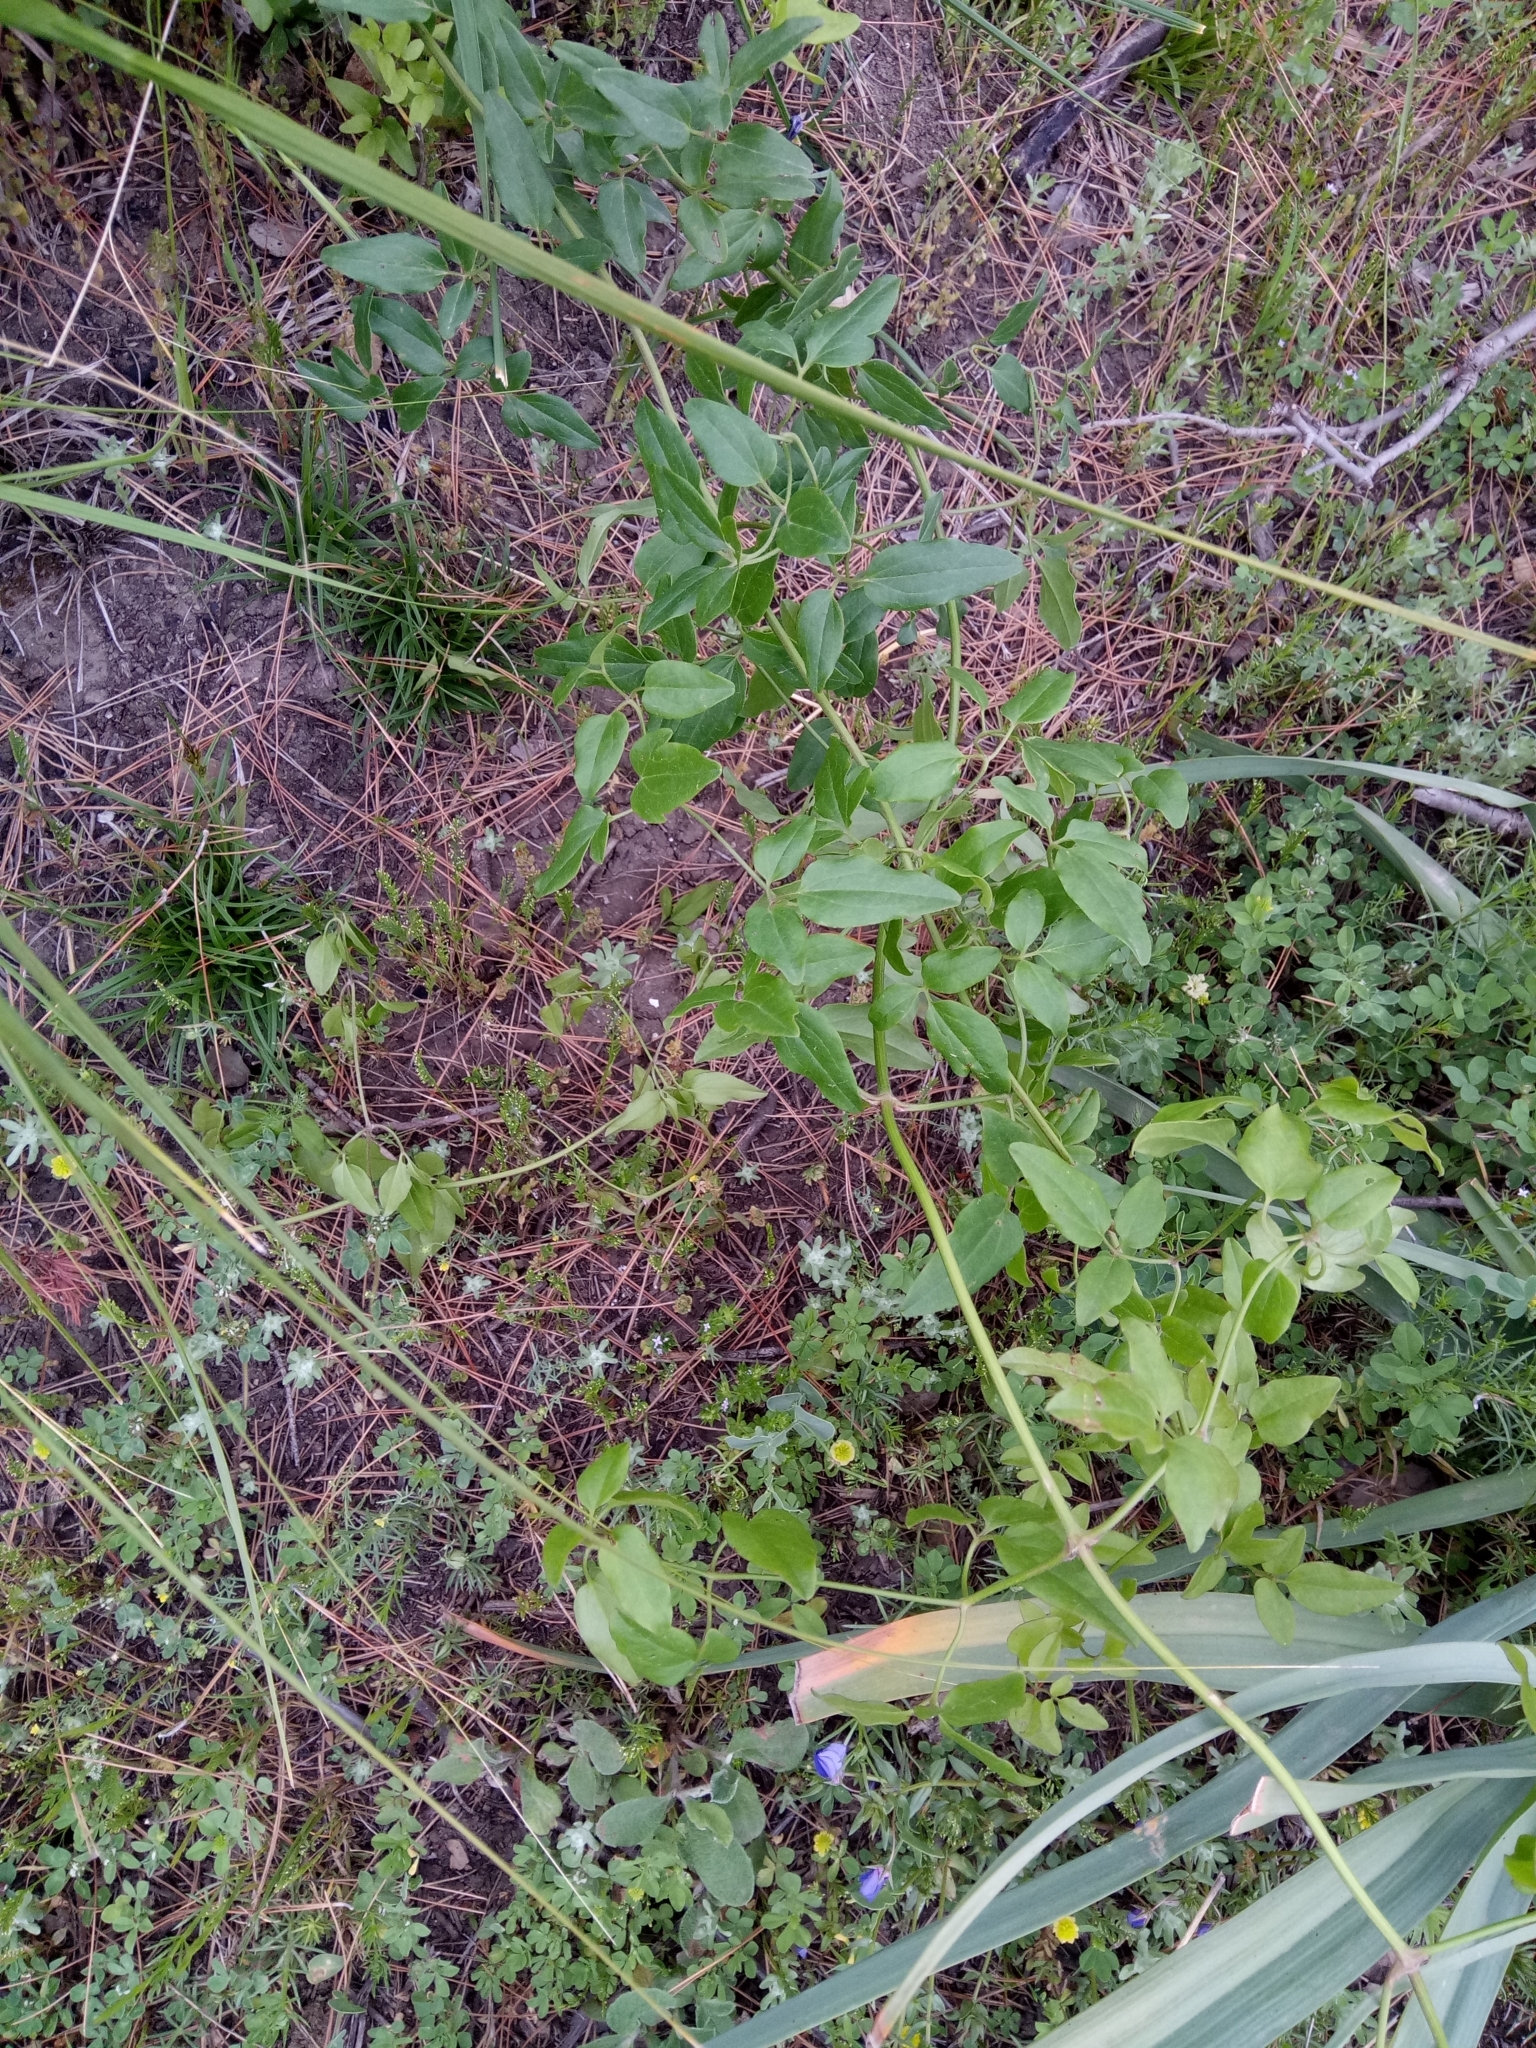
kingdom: Plantae
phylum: Tracheophyta
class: Magnoliopsida
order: Ranunculales
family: Ranunculaceae
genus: Clematis
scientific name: Clematis flammula
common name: Virgin's-bower
